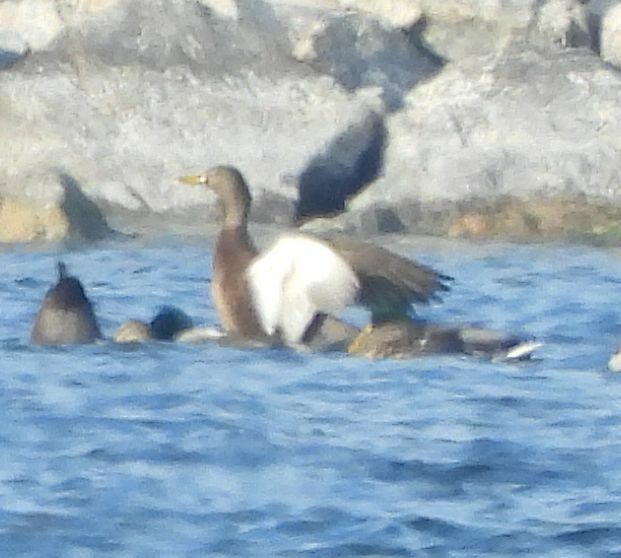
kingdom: Animalia
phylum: Chordata
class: Aves
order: Anseriformes
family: Anatidae
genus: Anas
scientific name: Anas rubripes
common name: American black duck
